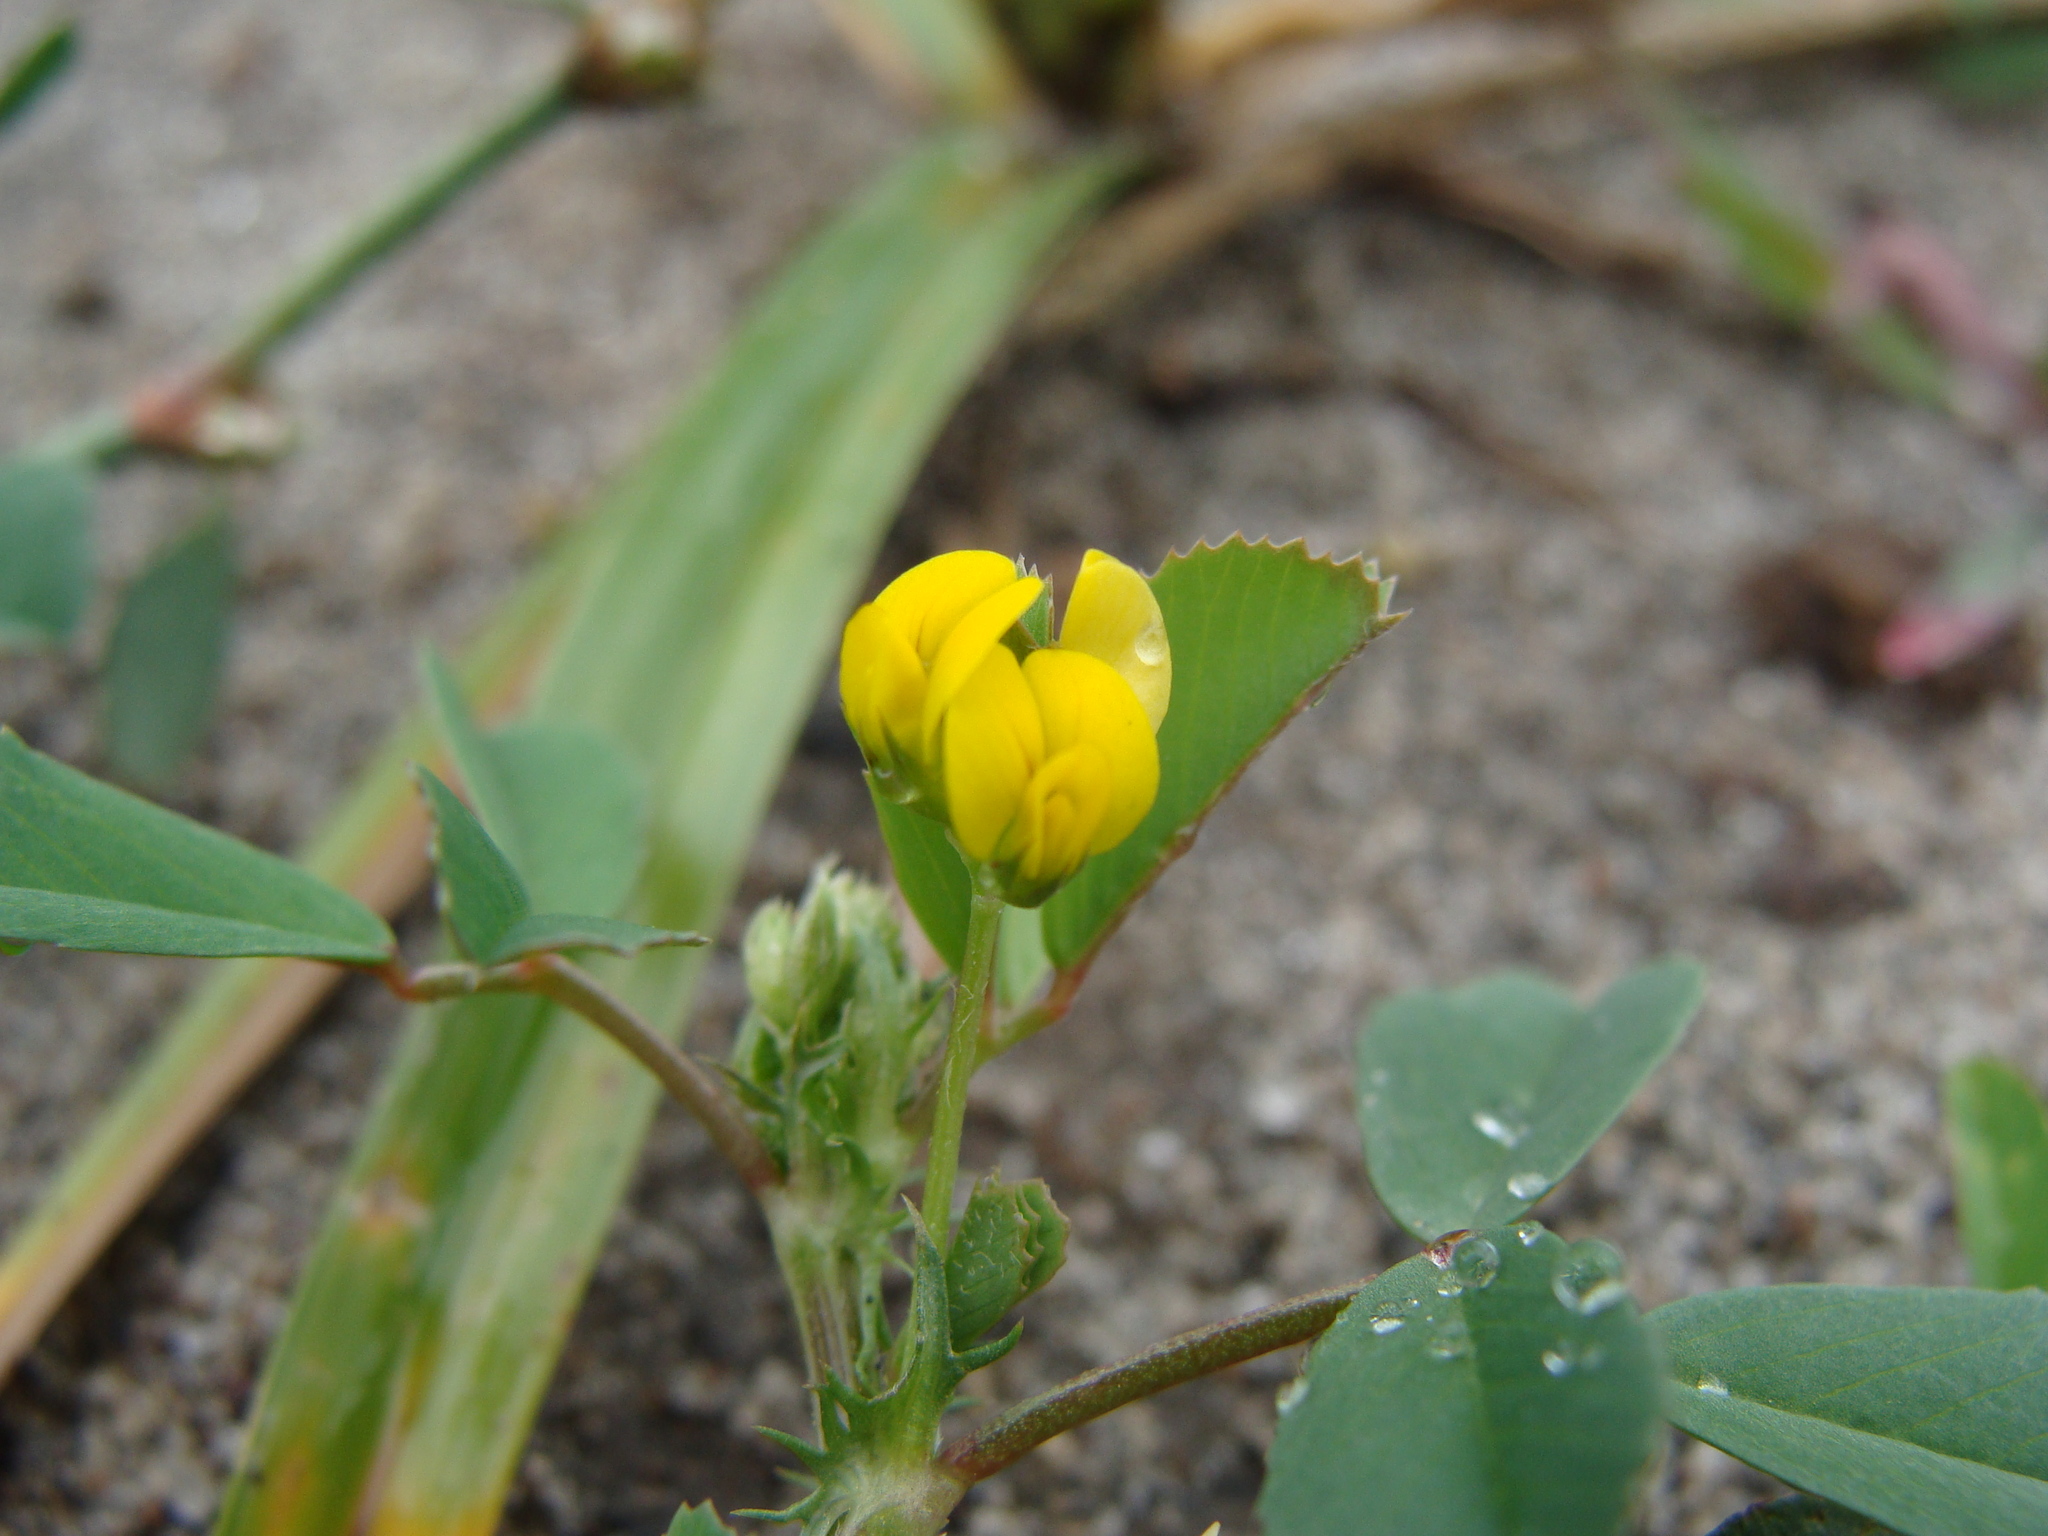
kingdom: Plantae
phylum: Tracheophyta
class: Magnoliopsida
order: Fabales
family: Fabaceae
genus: Medicago
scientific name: Medicago lupulina
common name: Black medick
